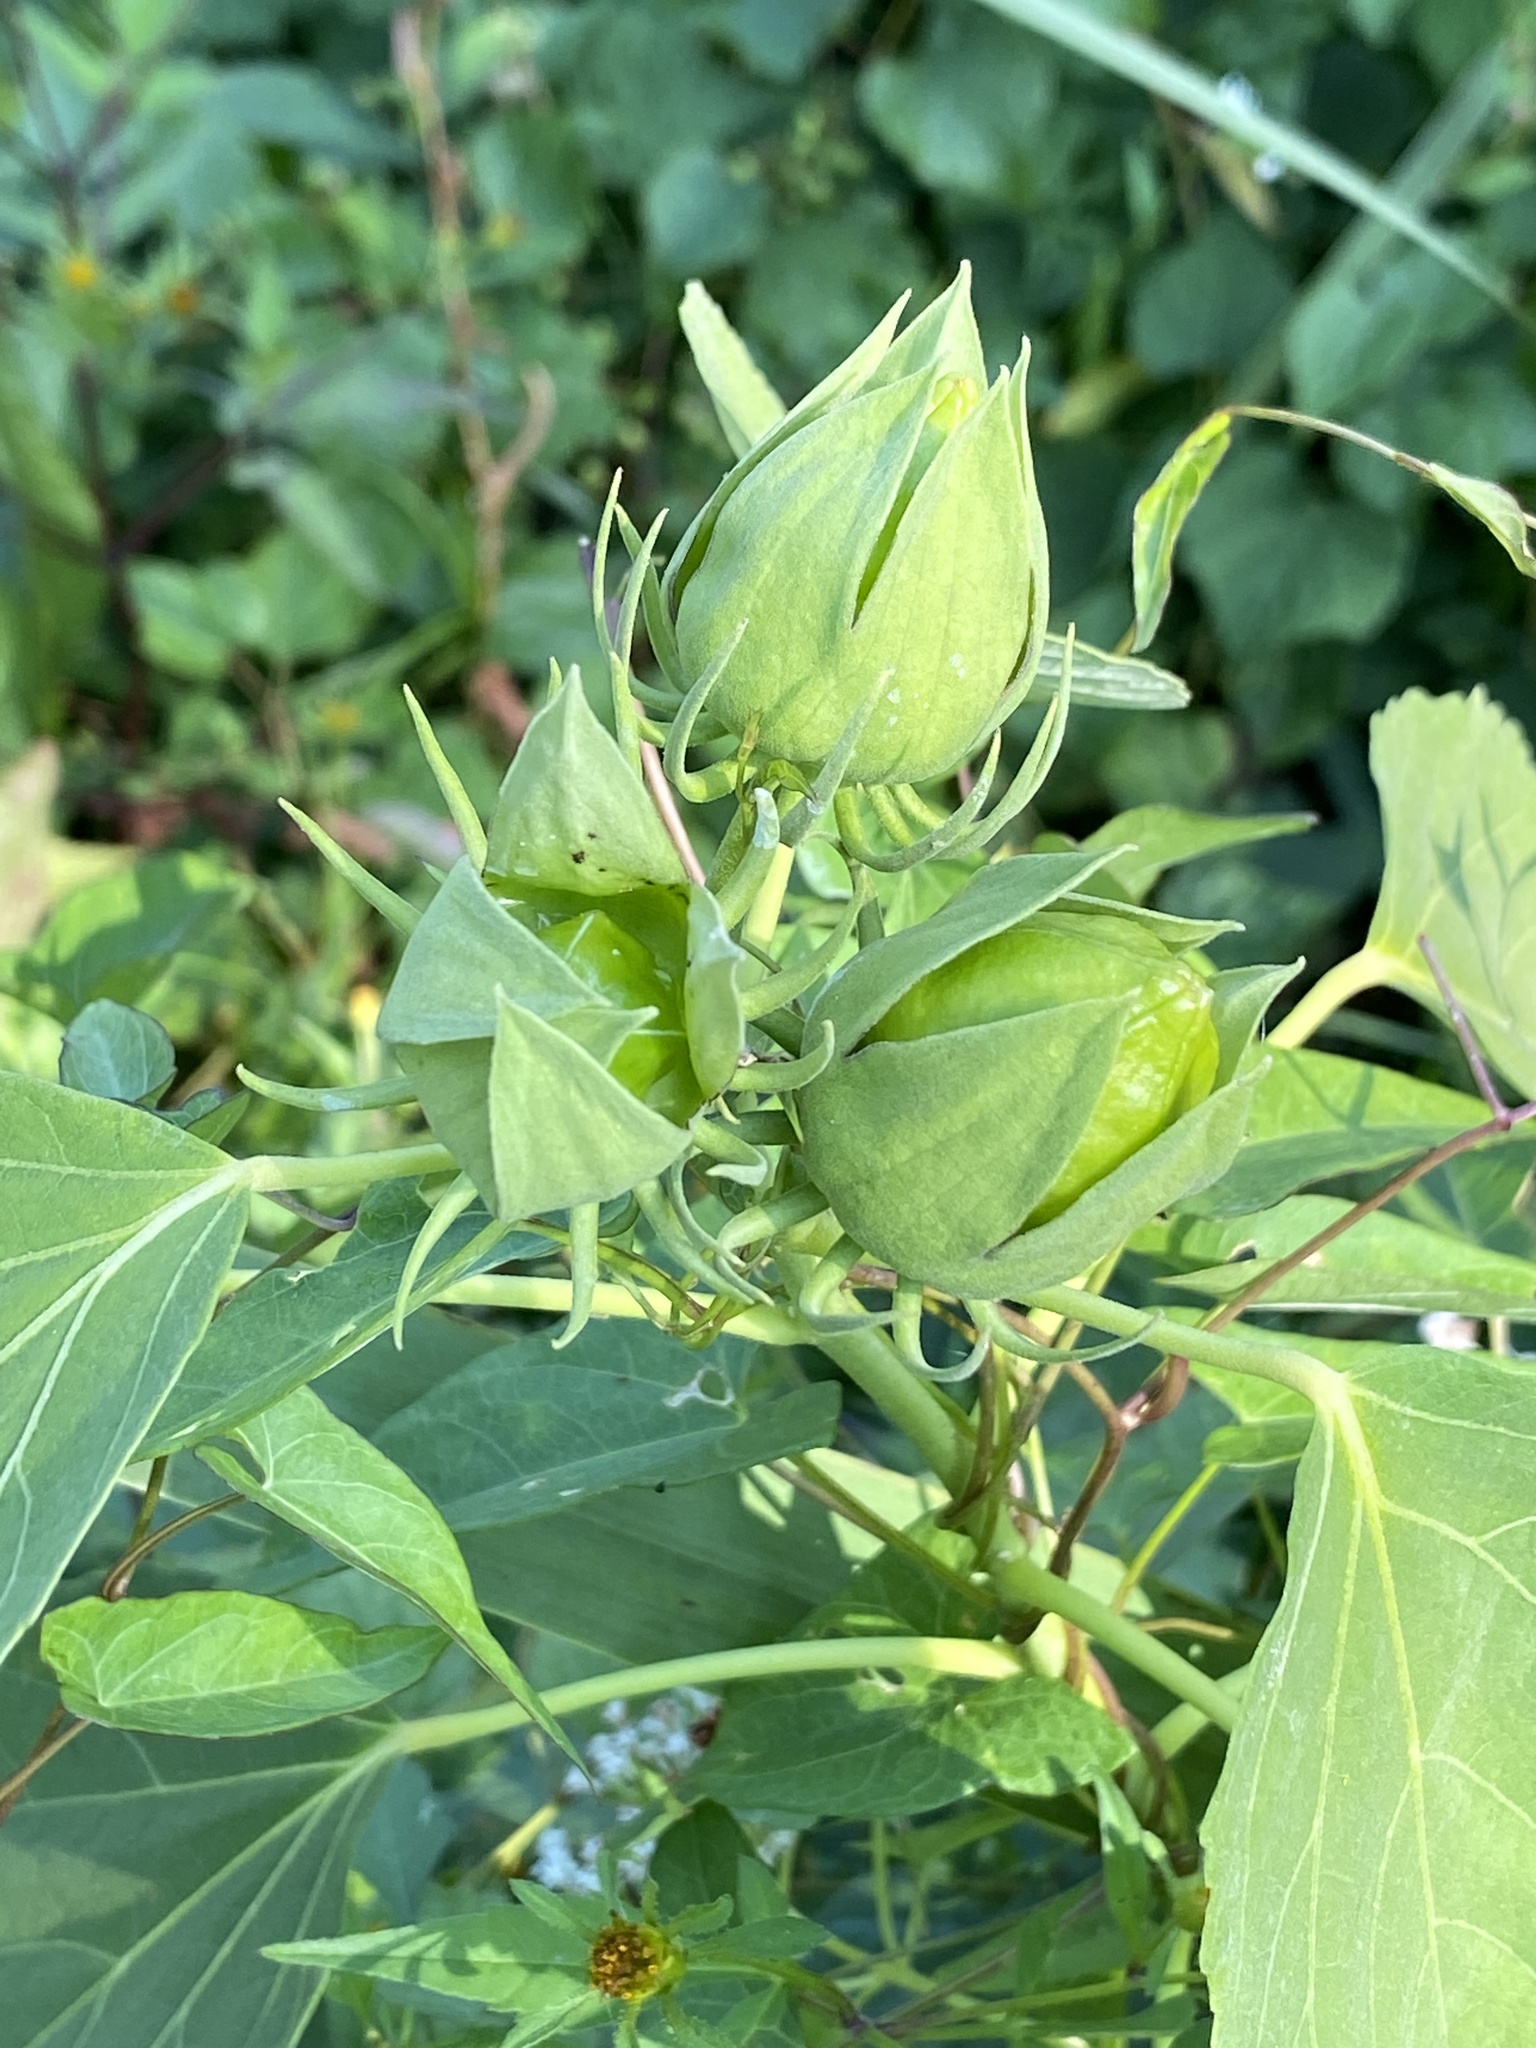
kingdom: Plantae
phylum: Tracheophyta
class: Magnoliopsida
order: Malvales
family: Malvaceae
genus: Hibiscus
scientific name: Hibiscus moscheutos
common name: Common rose-mallow
